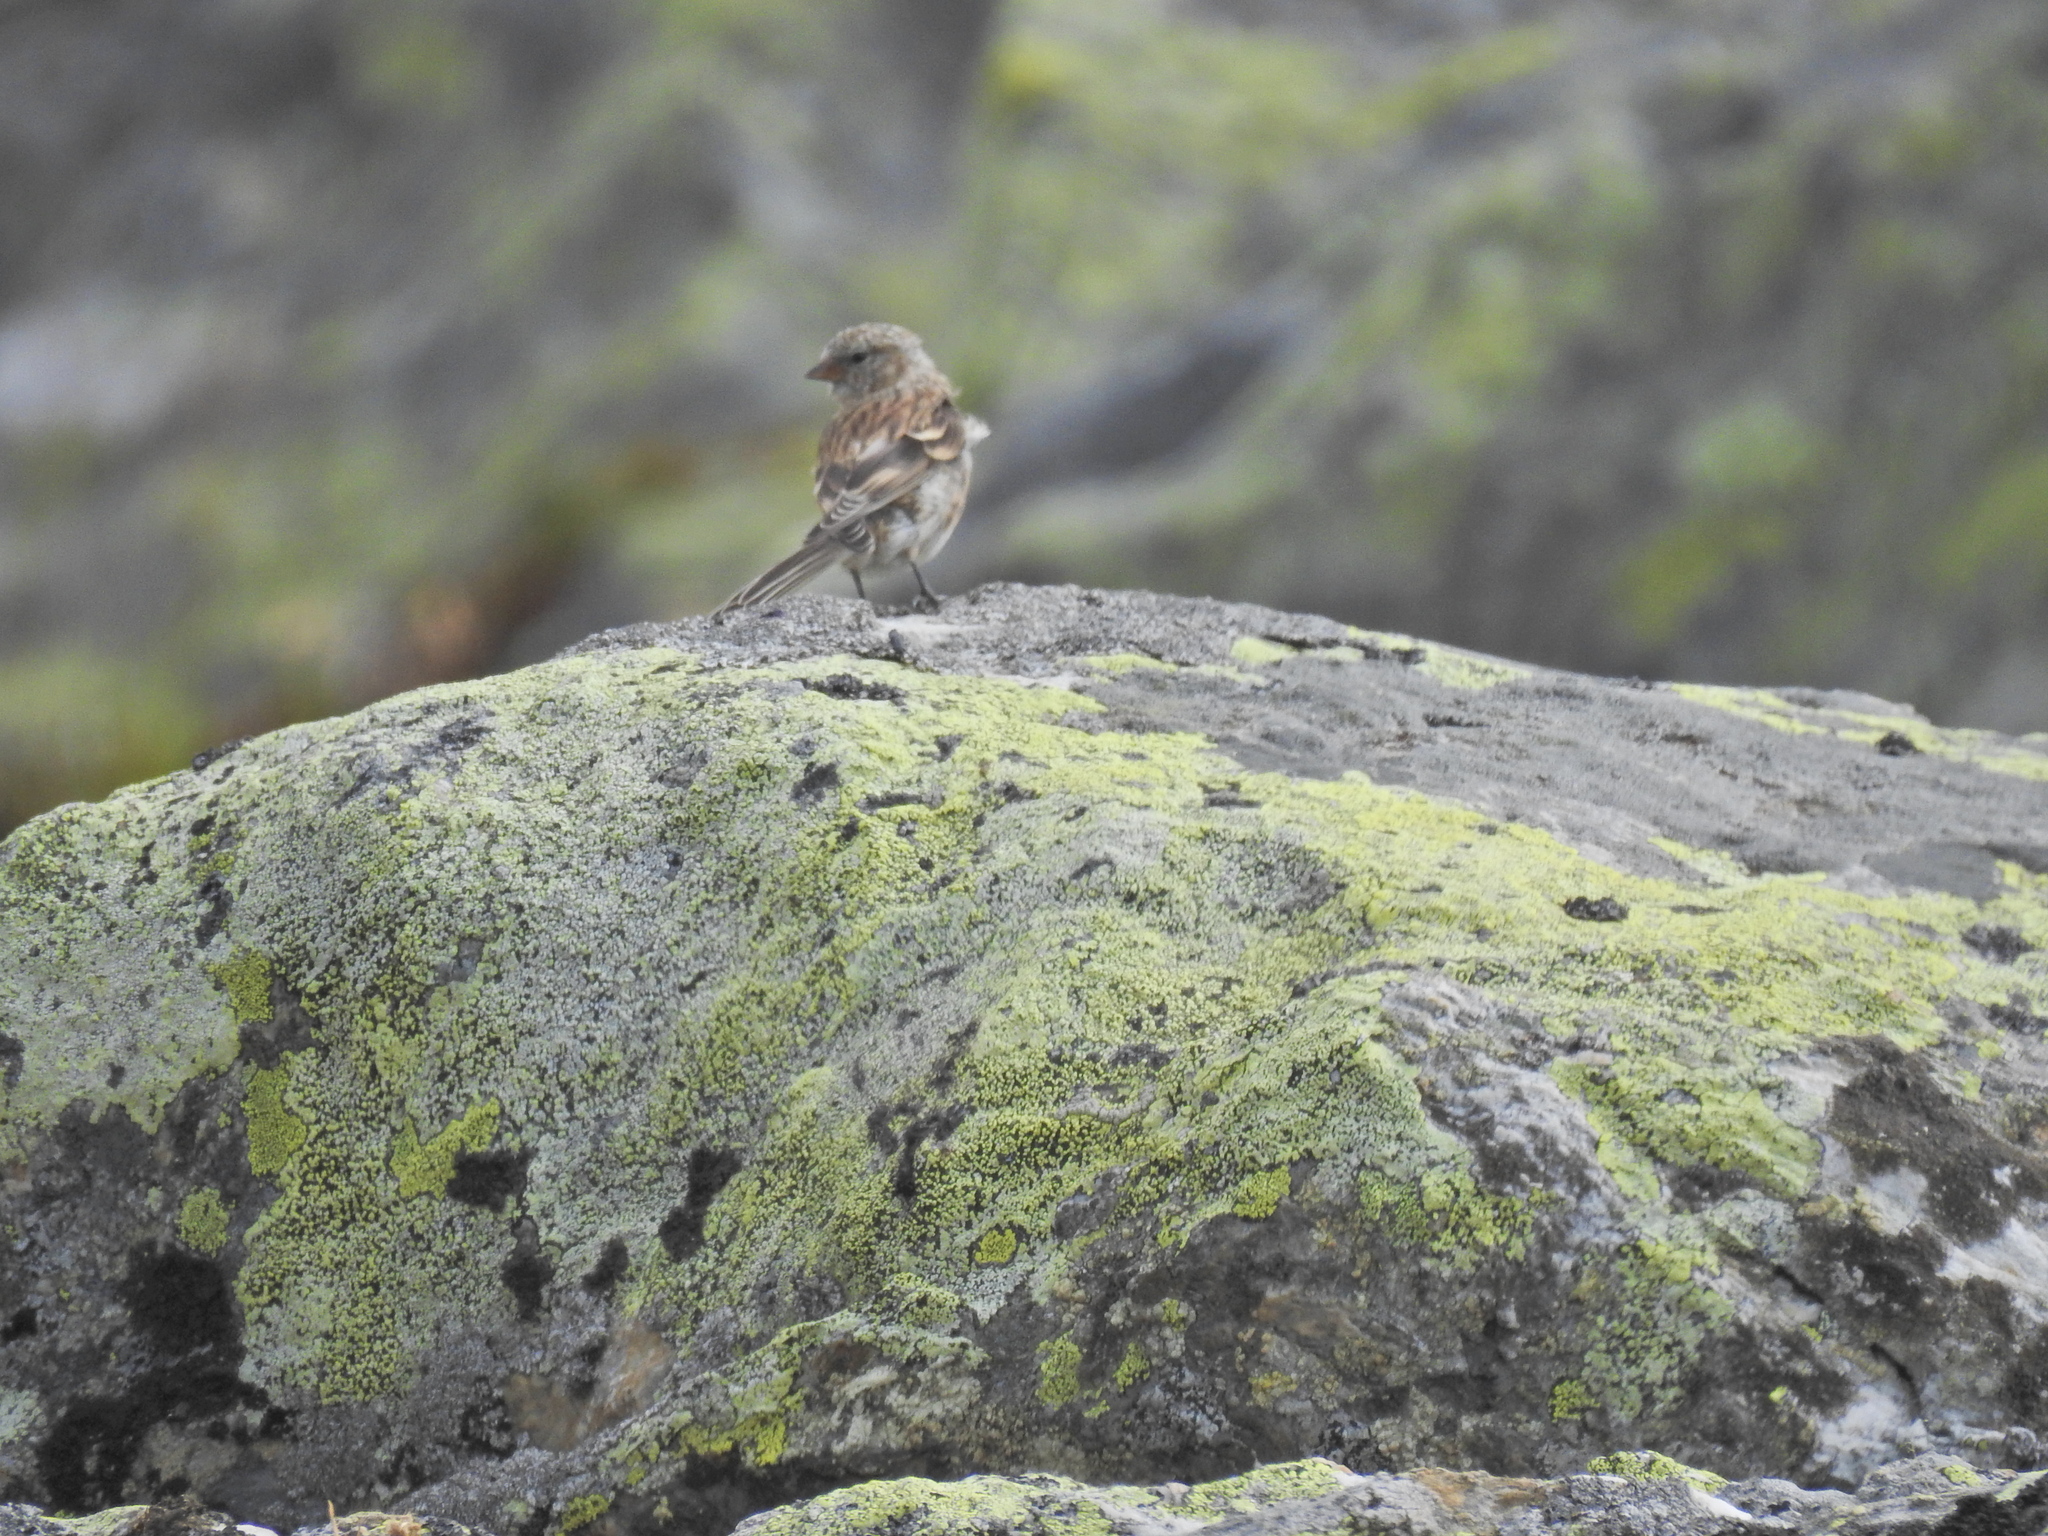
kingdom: Animalia
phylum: Chordata
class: Aves
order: Passeriformes
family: Fringillidae
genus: Carduelis
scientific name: Carduelis citrinella
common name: Citril finch
